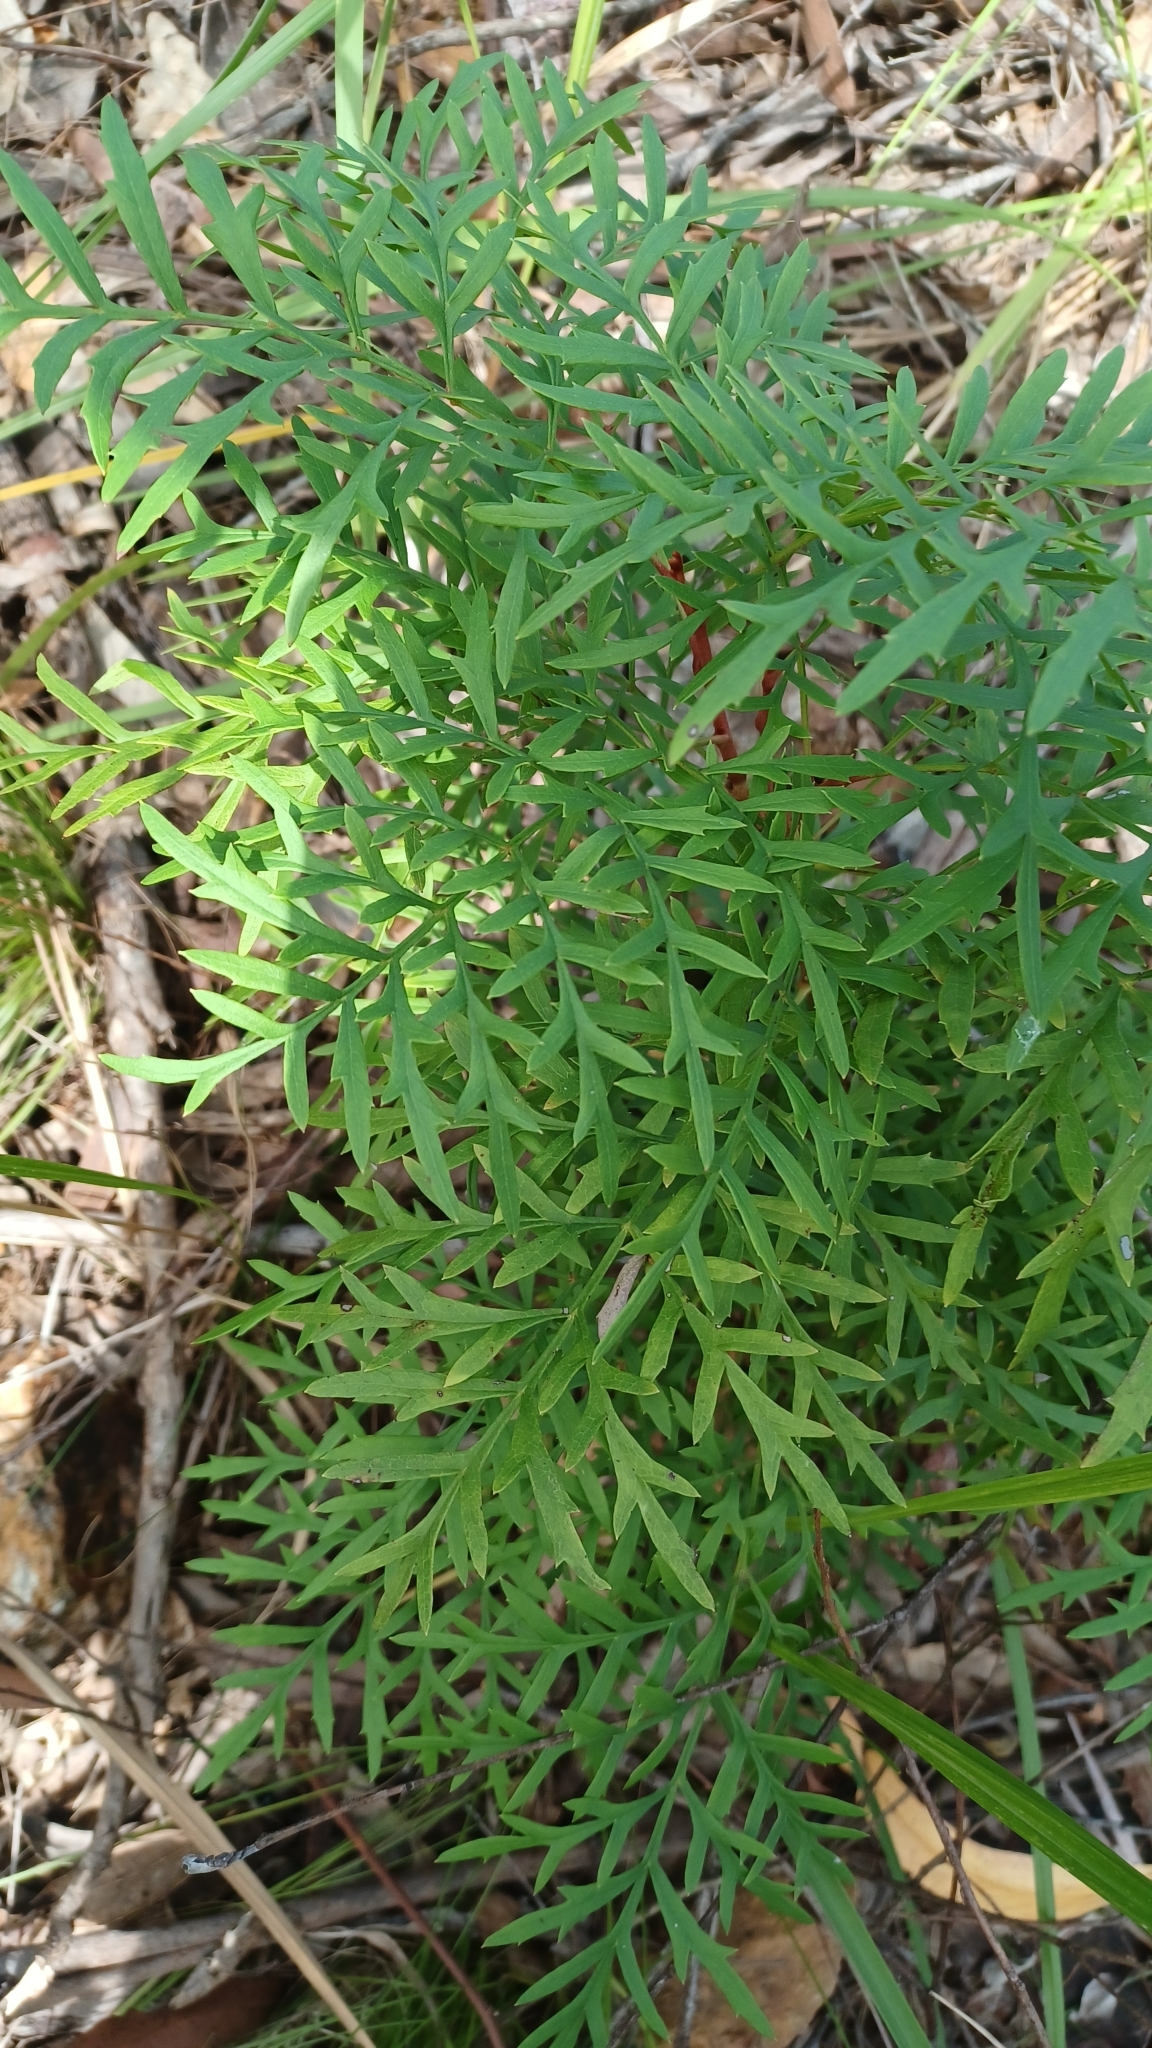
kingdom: Plantae
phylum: Tracheophyta
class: Magnoliopsida
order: Proteales
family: Proteaceae
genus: Lomatia
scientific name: Lomatia silaifolia
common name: Crinklebush
